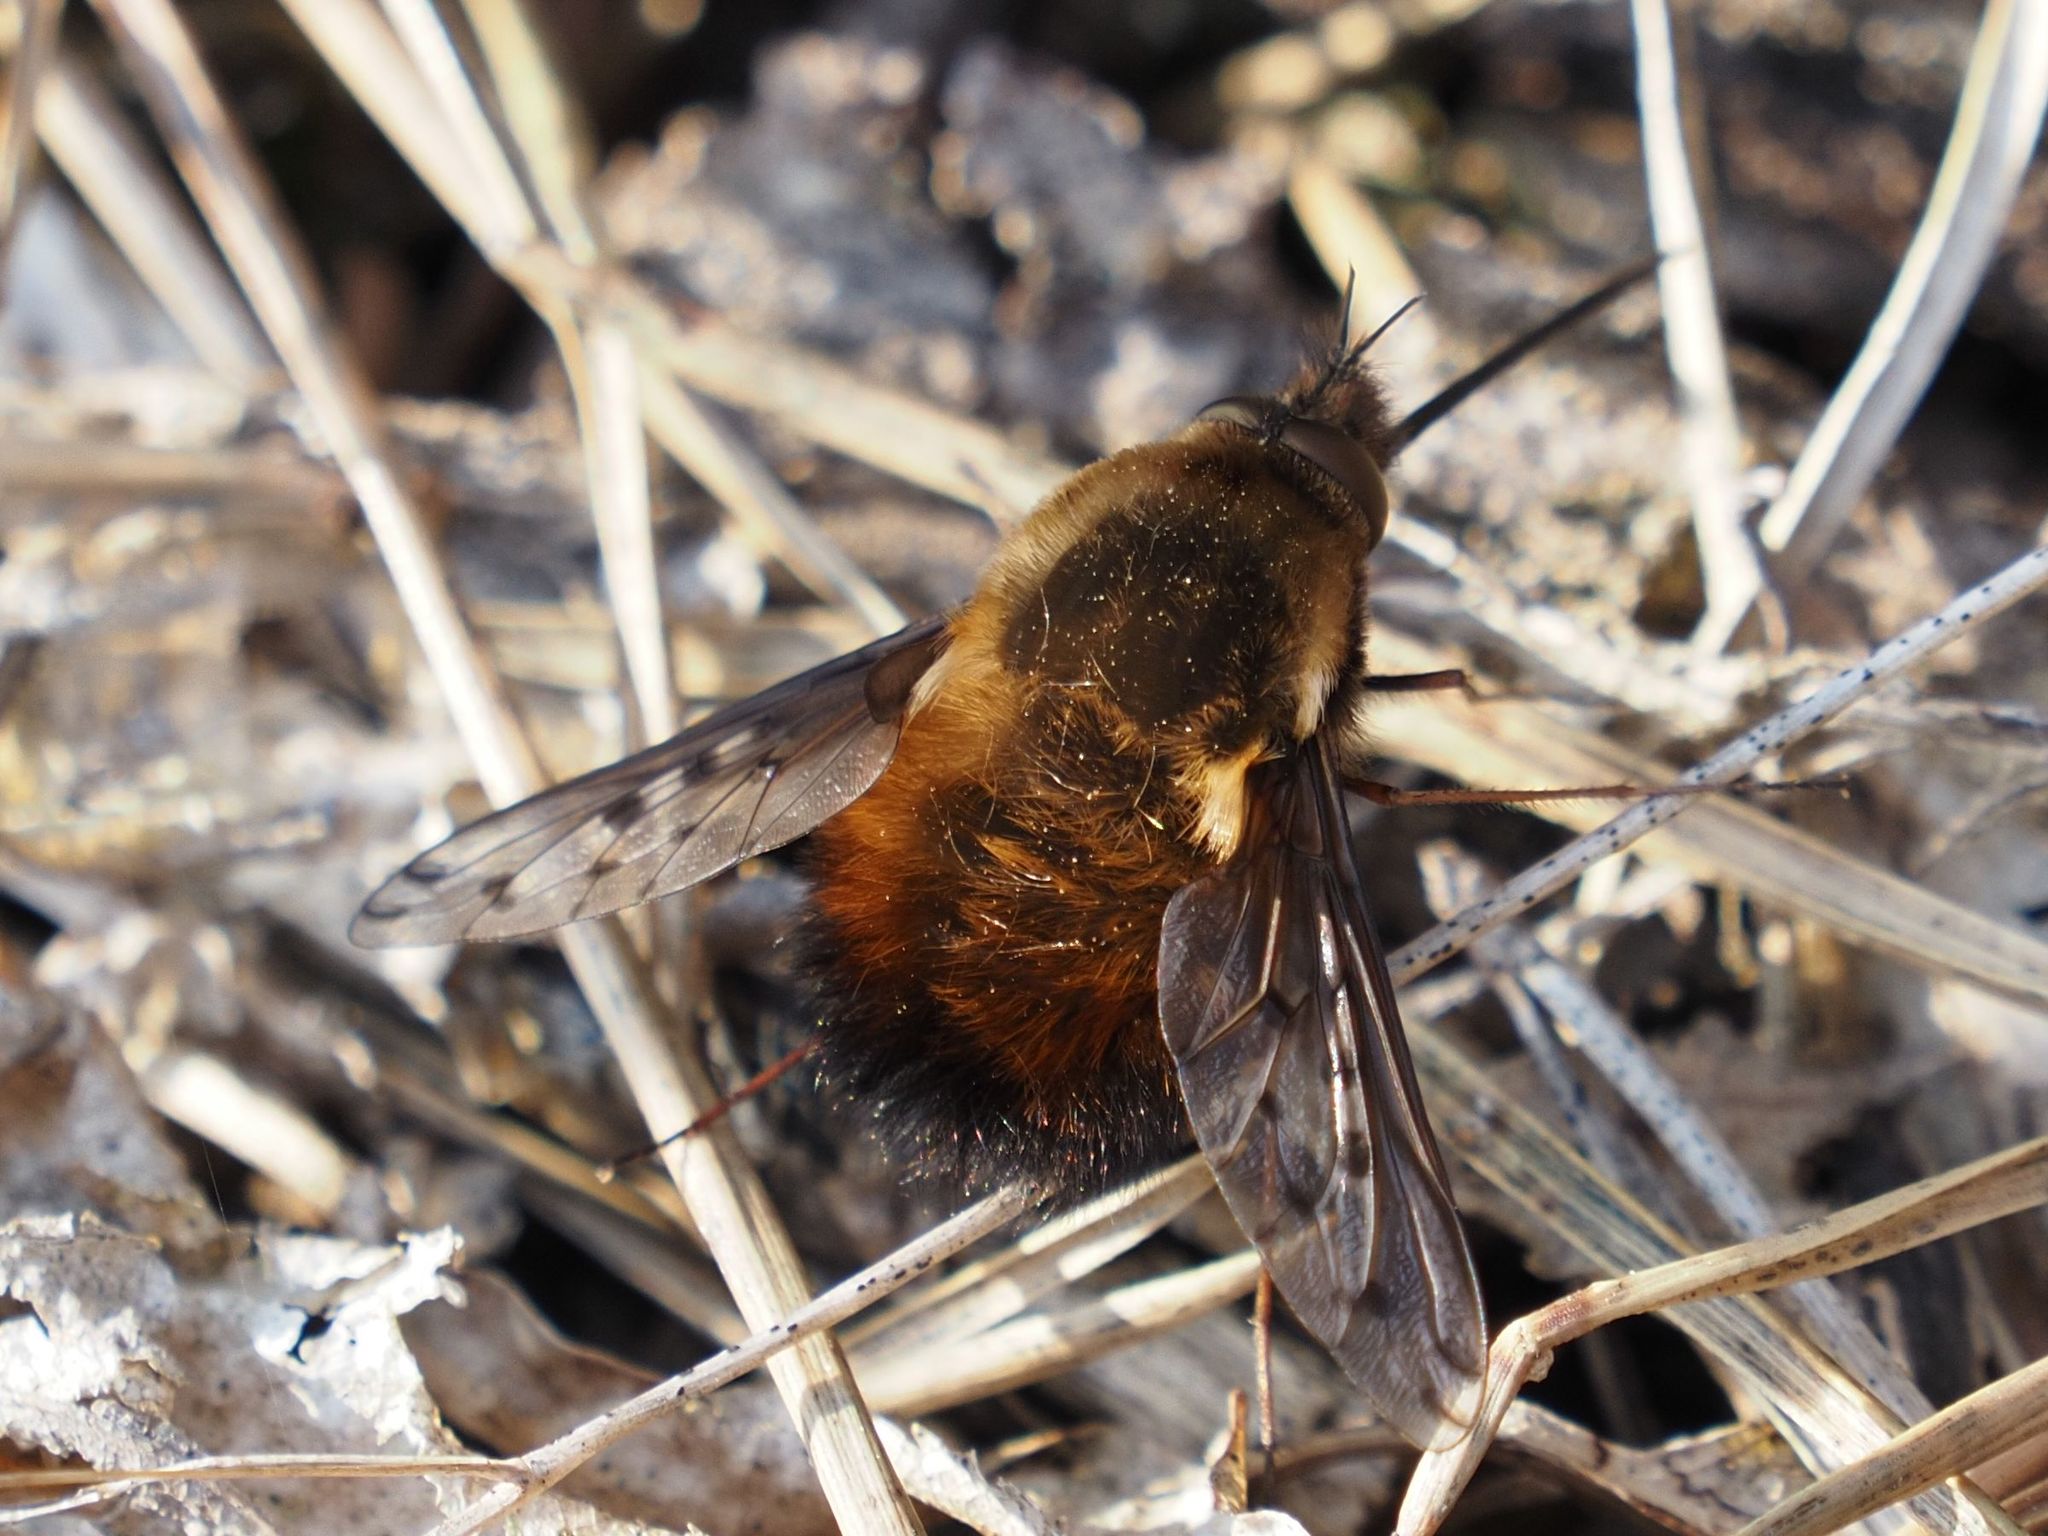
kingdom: Animalia
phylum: Arthropoda
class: Insecta
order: Diptera
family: Bombyliidae
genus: Bombylius
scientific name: Bombylius discolor
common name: Dotted bee-fly
